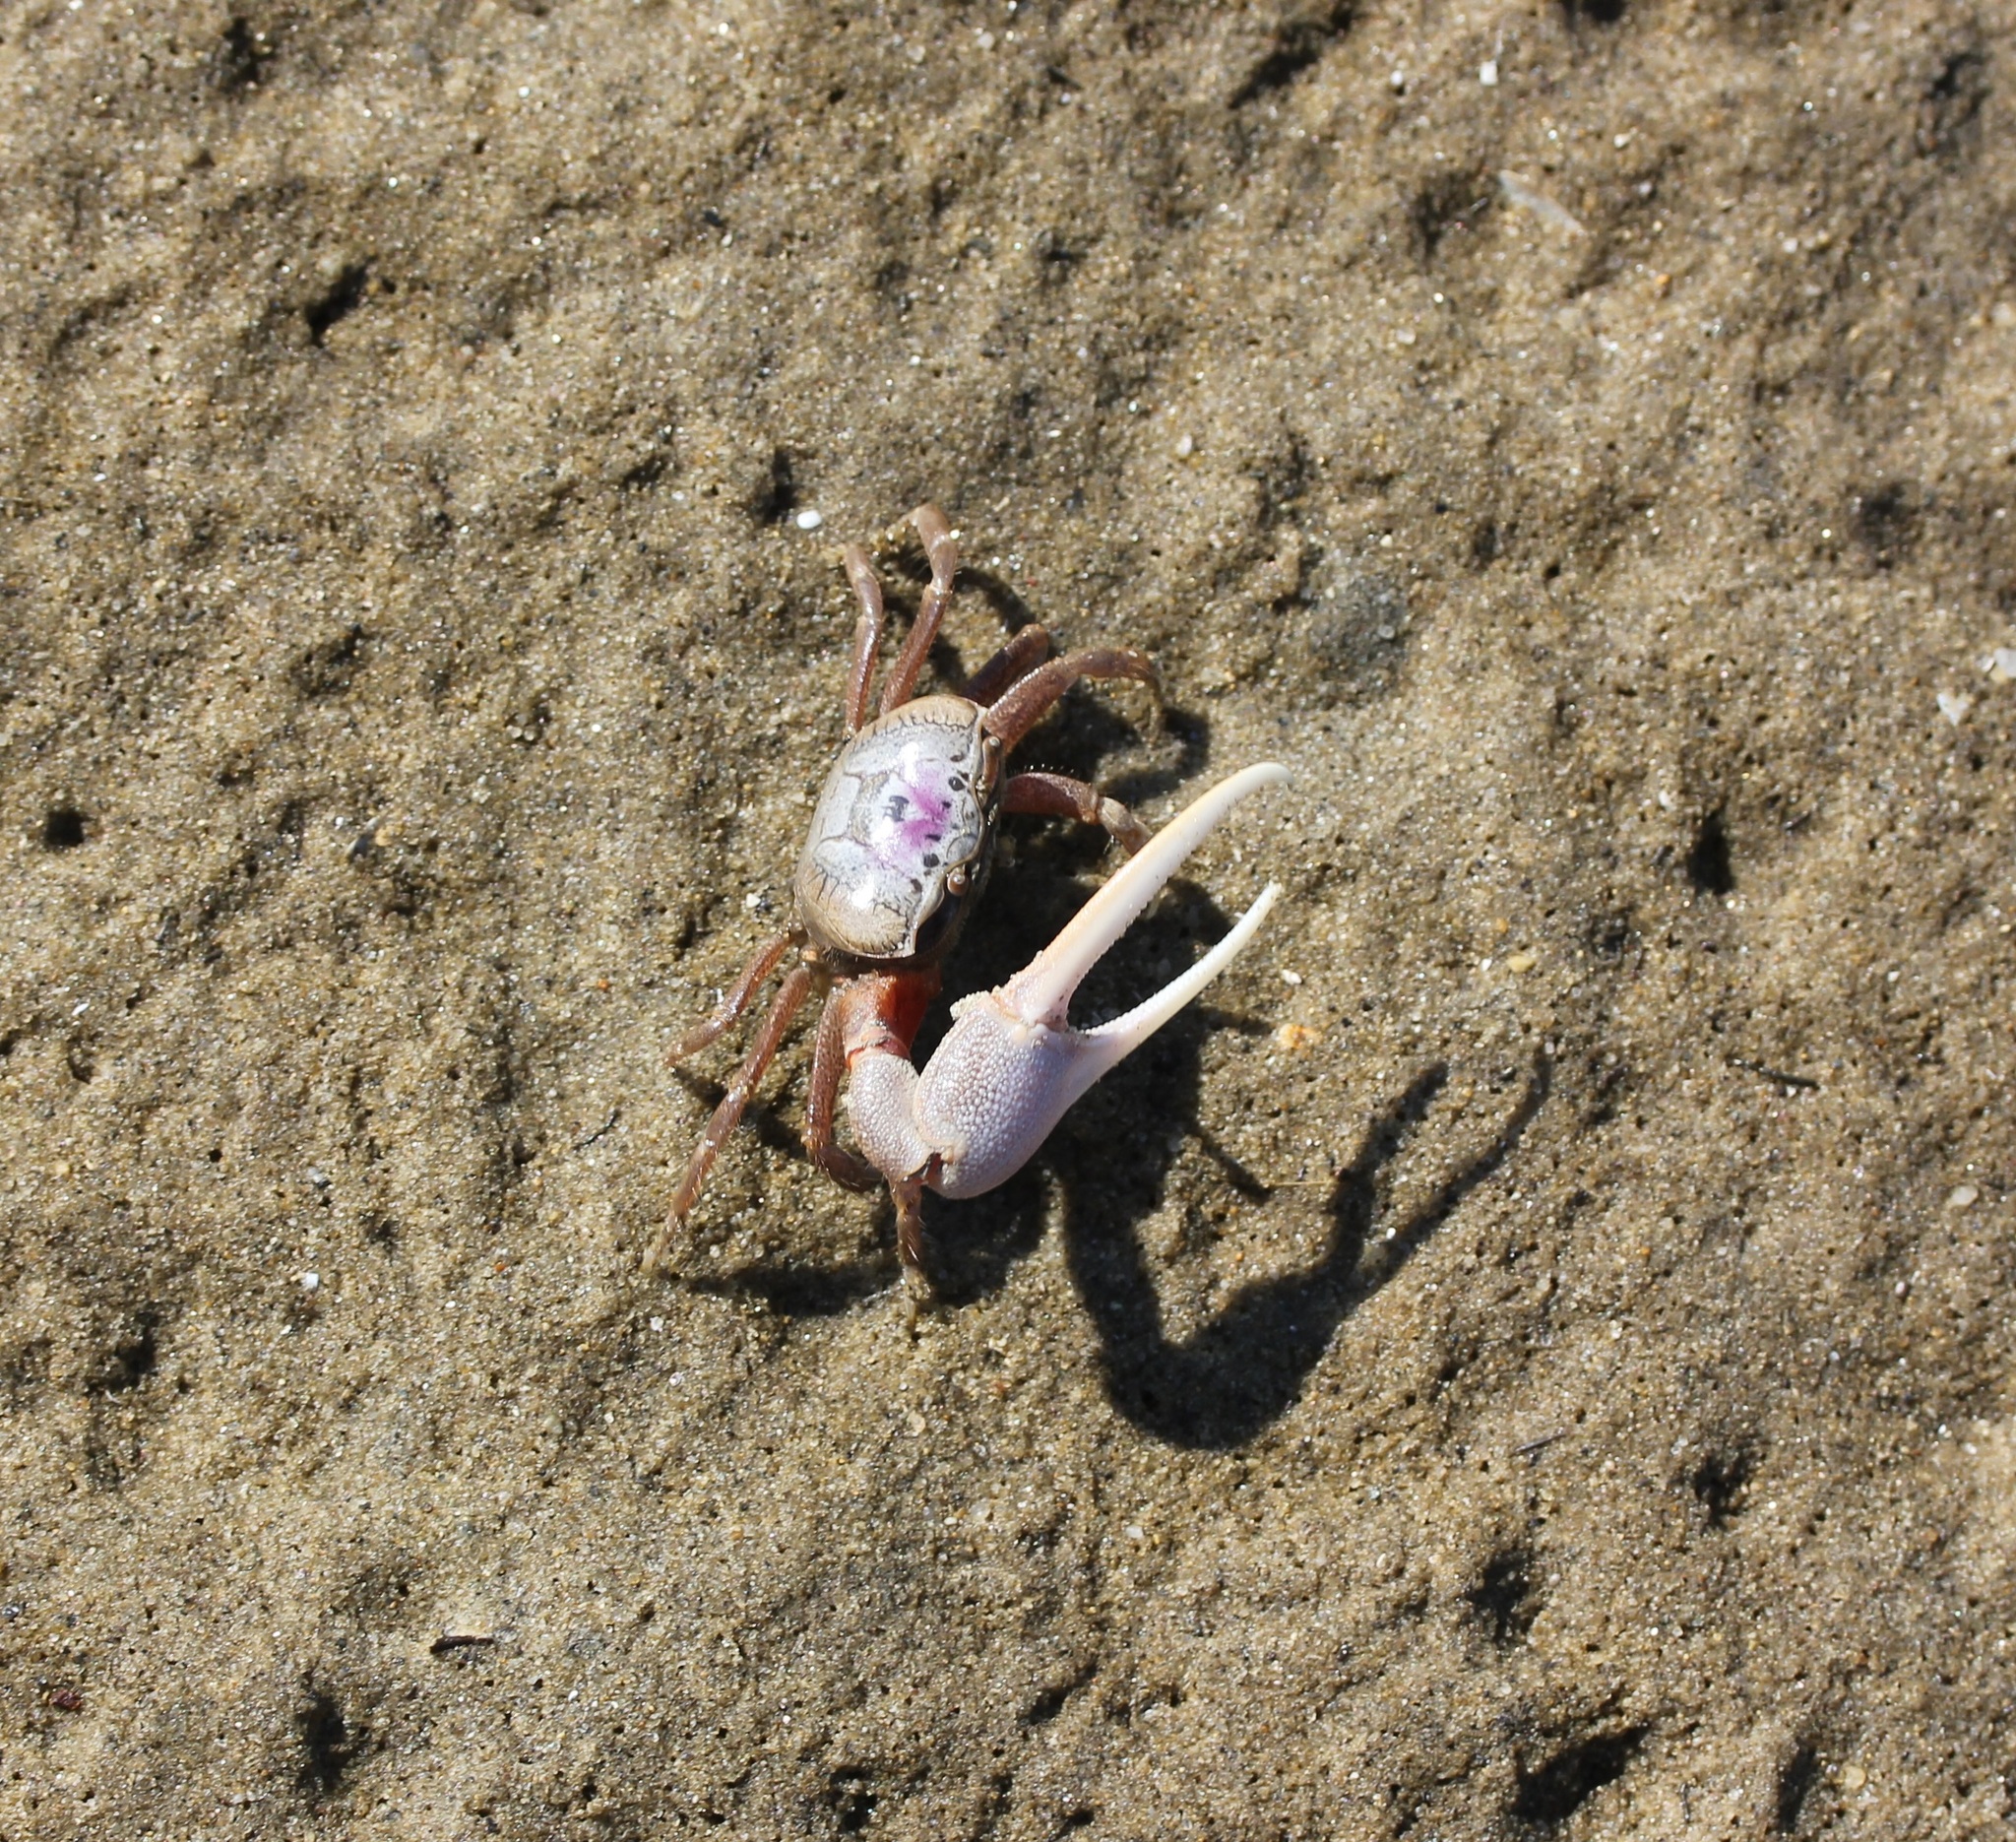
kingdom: Animalia
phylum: Arthropoda
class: Malacostraca
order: Decapoda
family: Ocypodidae
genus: Leptuca
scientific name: Leptuca pugilator
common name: Atlantic sand fiddler crab
